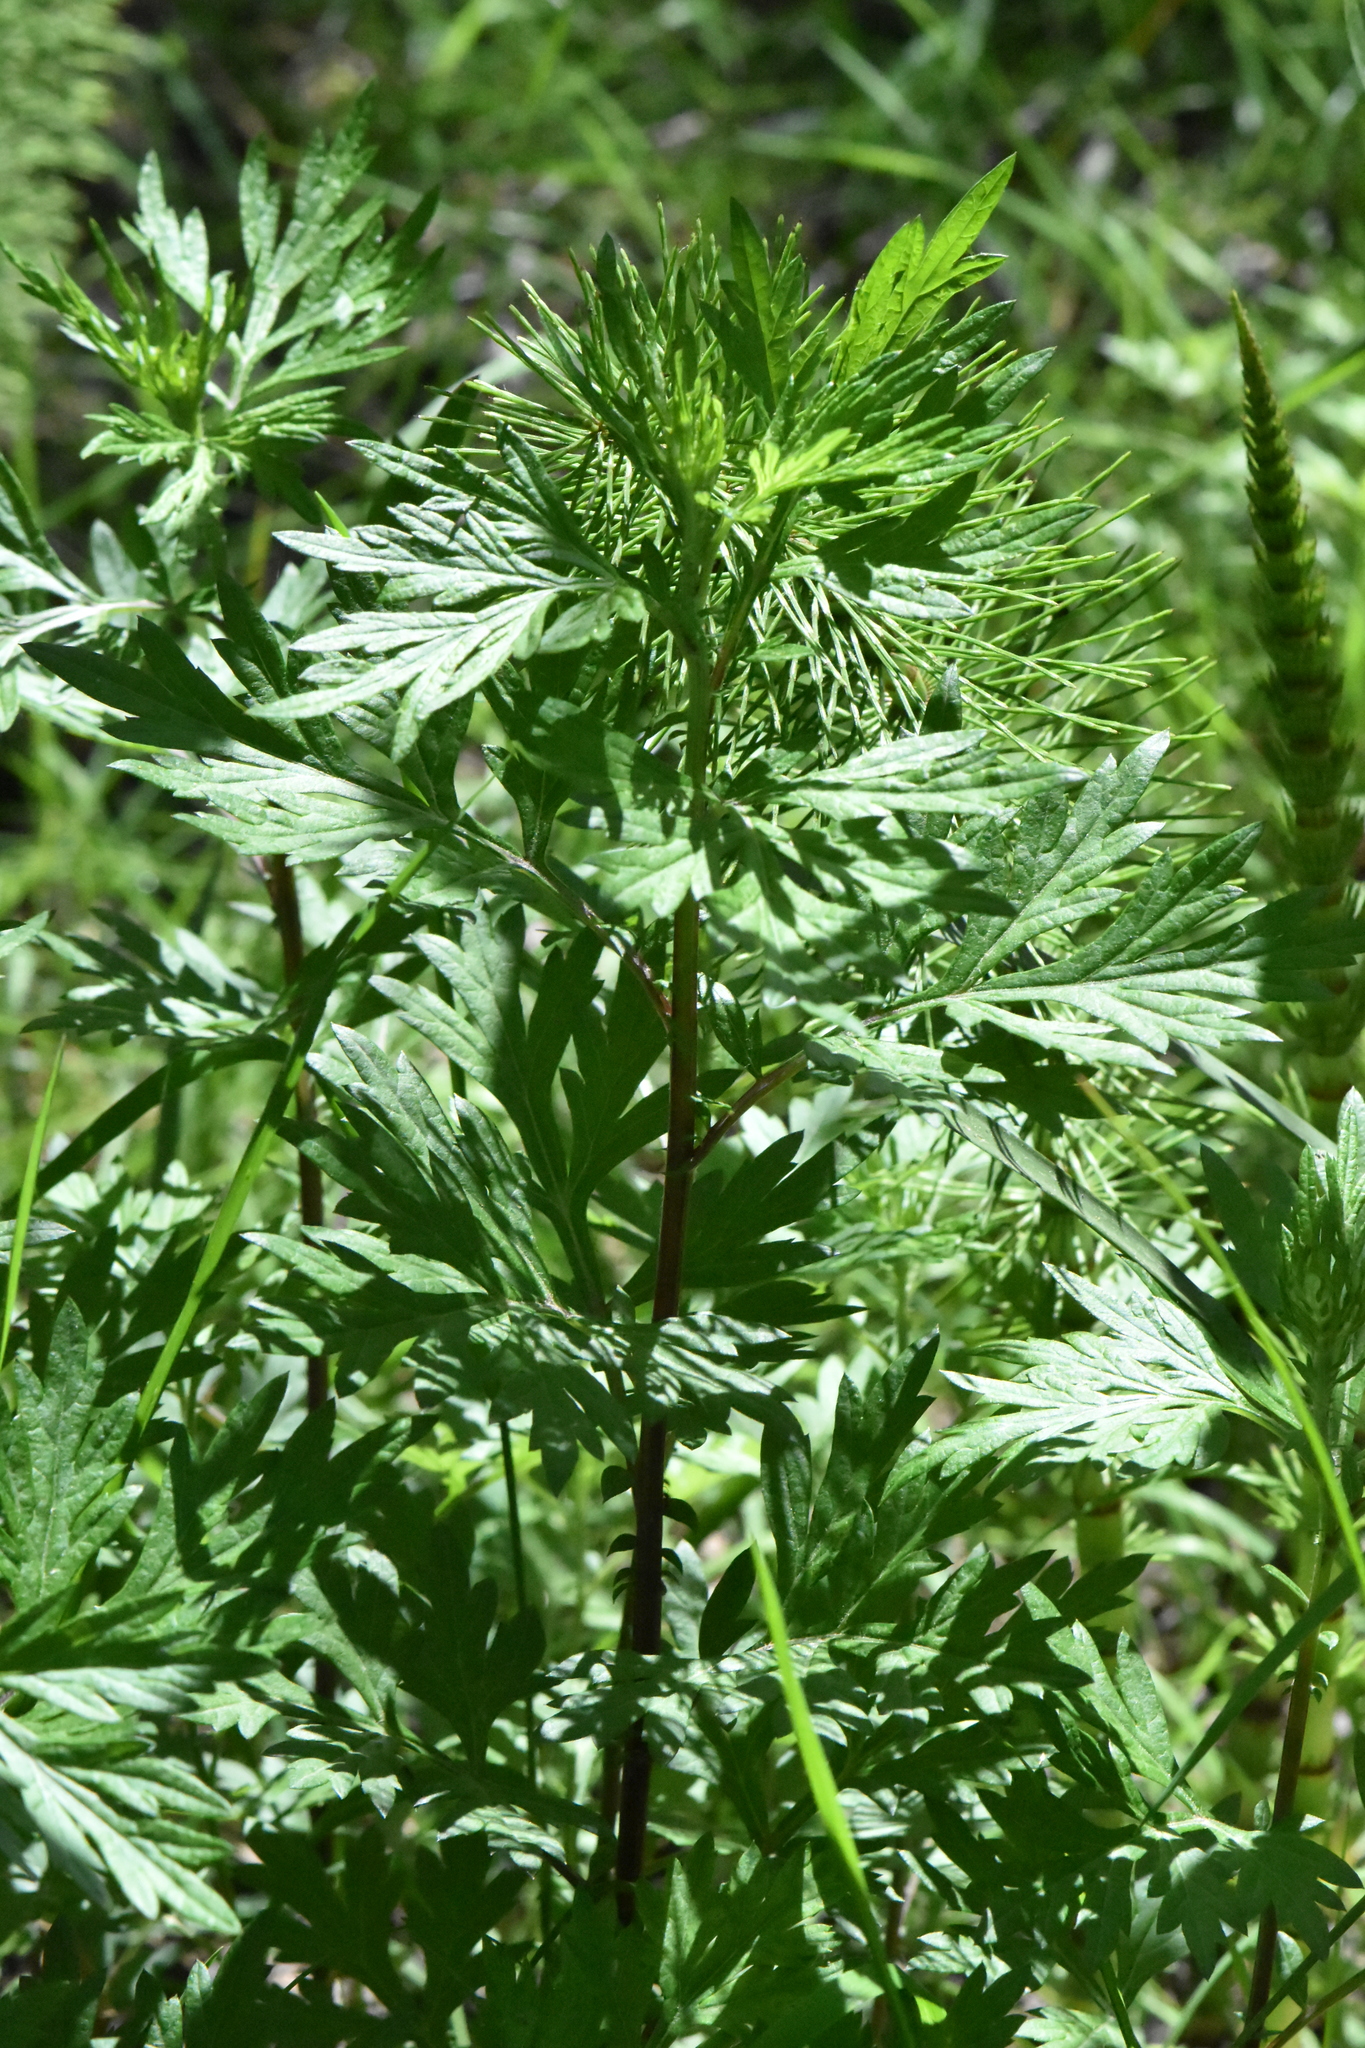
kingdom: Plantae
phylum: Tracheophyta
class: Magnoliopsida
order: Asterales
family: Asteraceae
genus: Artemisia
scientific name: Artemisia vulgaris
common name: Mugwort
